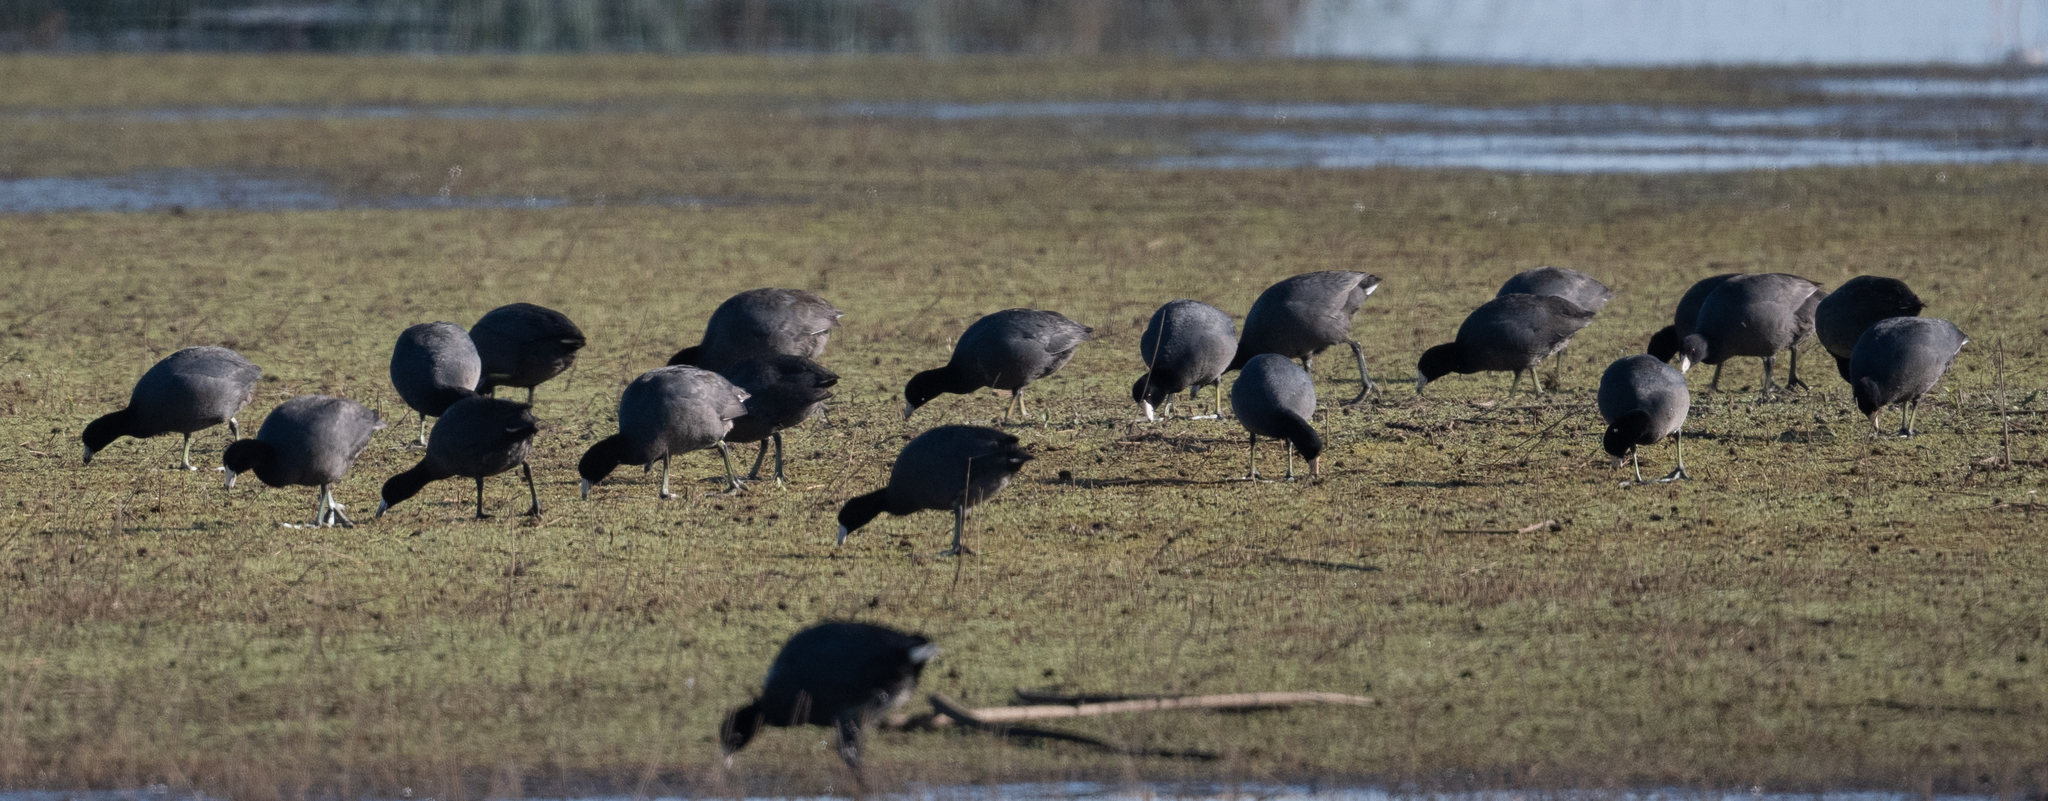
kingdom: Animalia
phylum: Chordata
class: Aves
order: Gruiformes
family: Rallidae
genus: Fulica
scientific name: Fulica americana
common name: American coot
